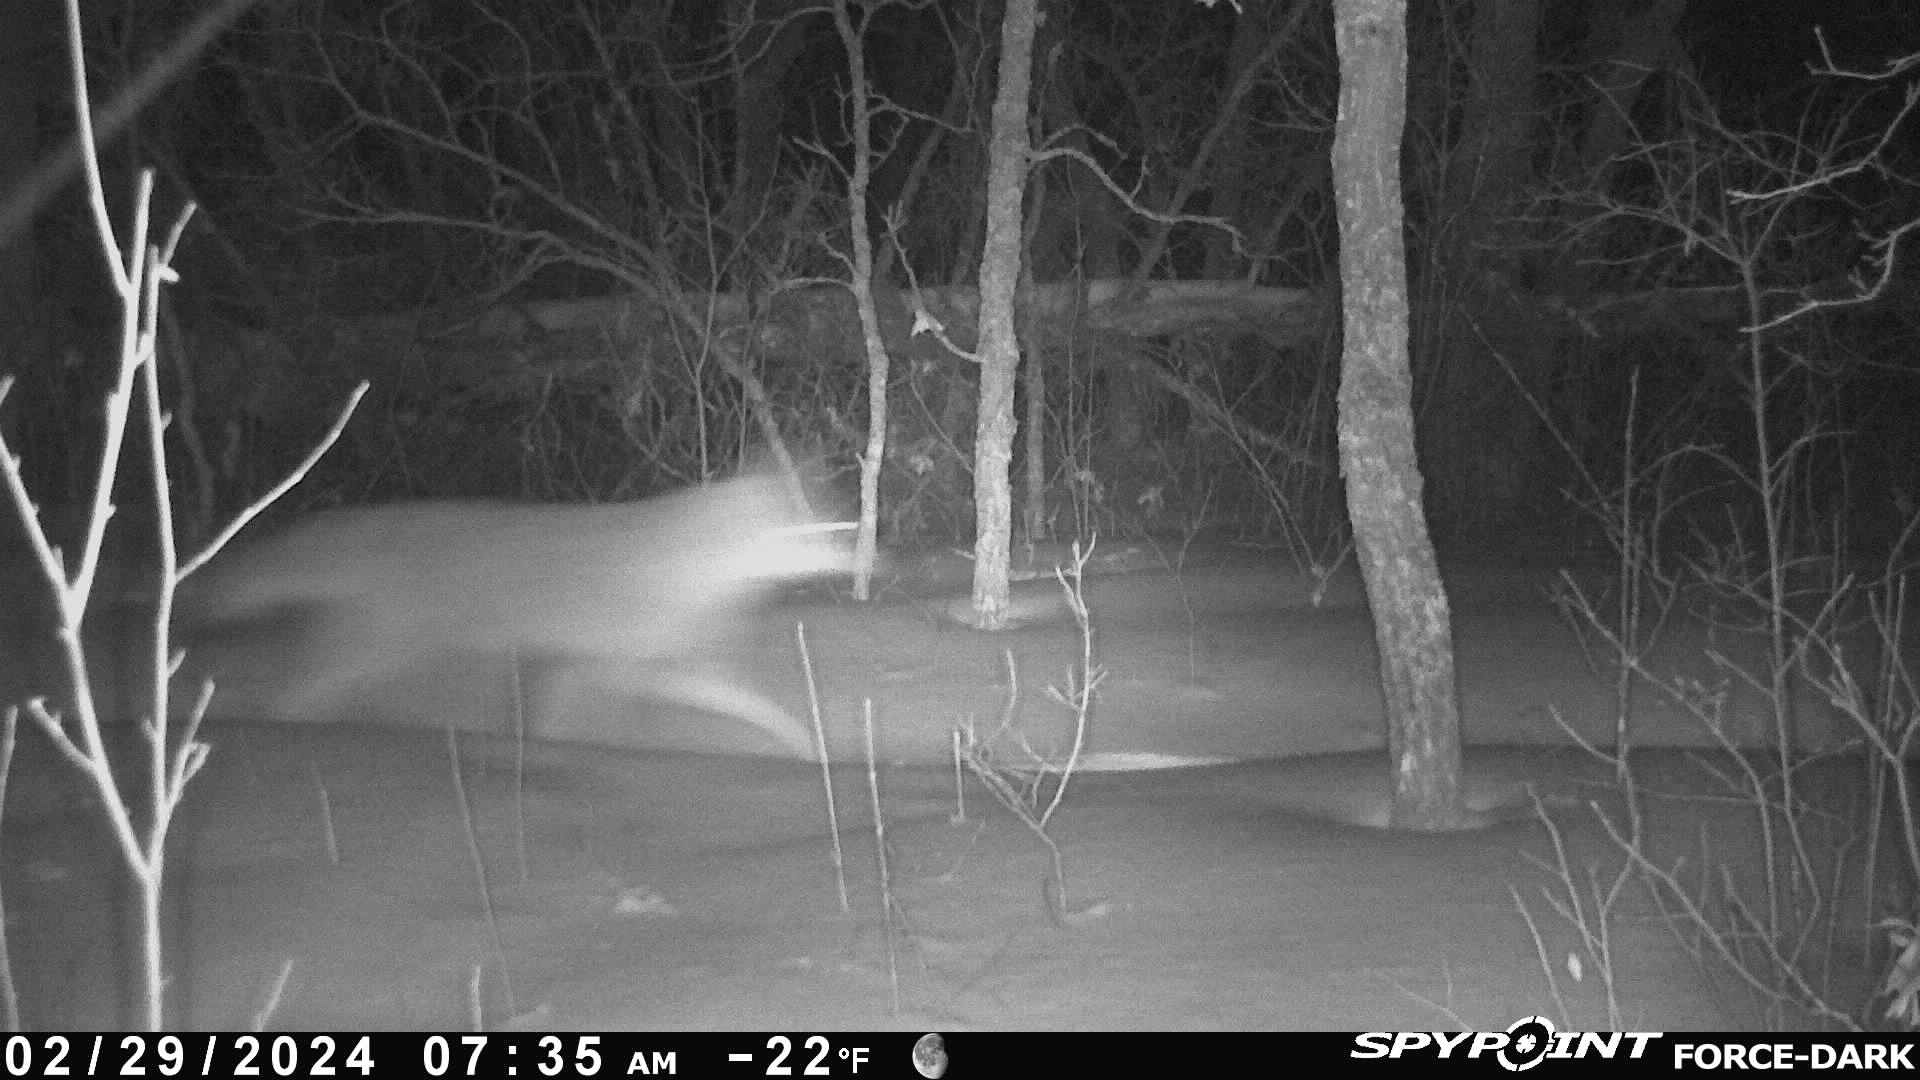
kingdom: Animalia
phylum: Chordata
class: Mammalia
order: Carnivora
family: Canidae
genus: Canis
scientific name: Canis latrans
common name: Coyote
